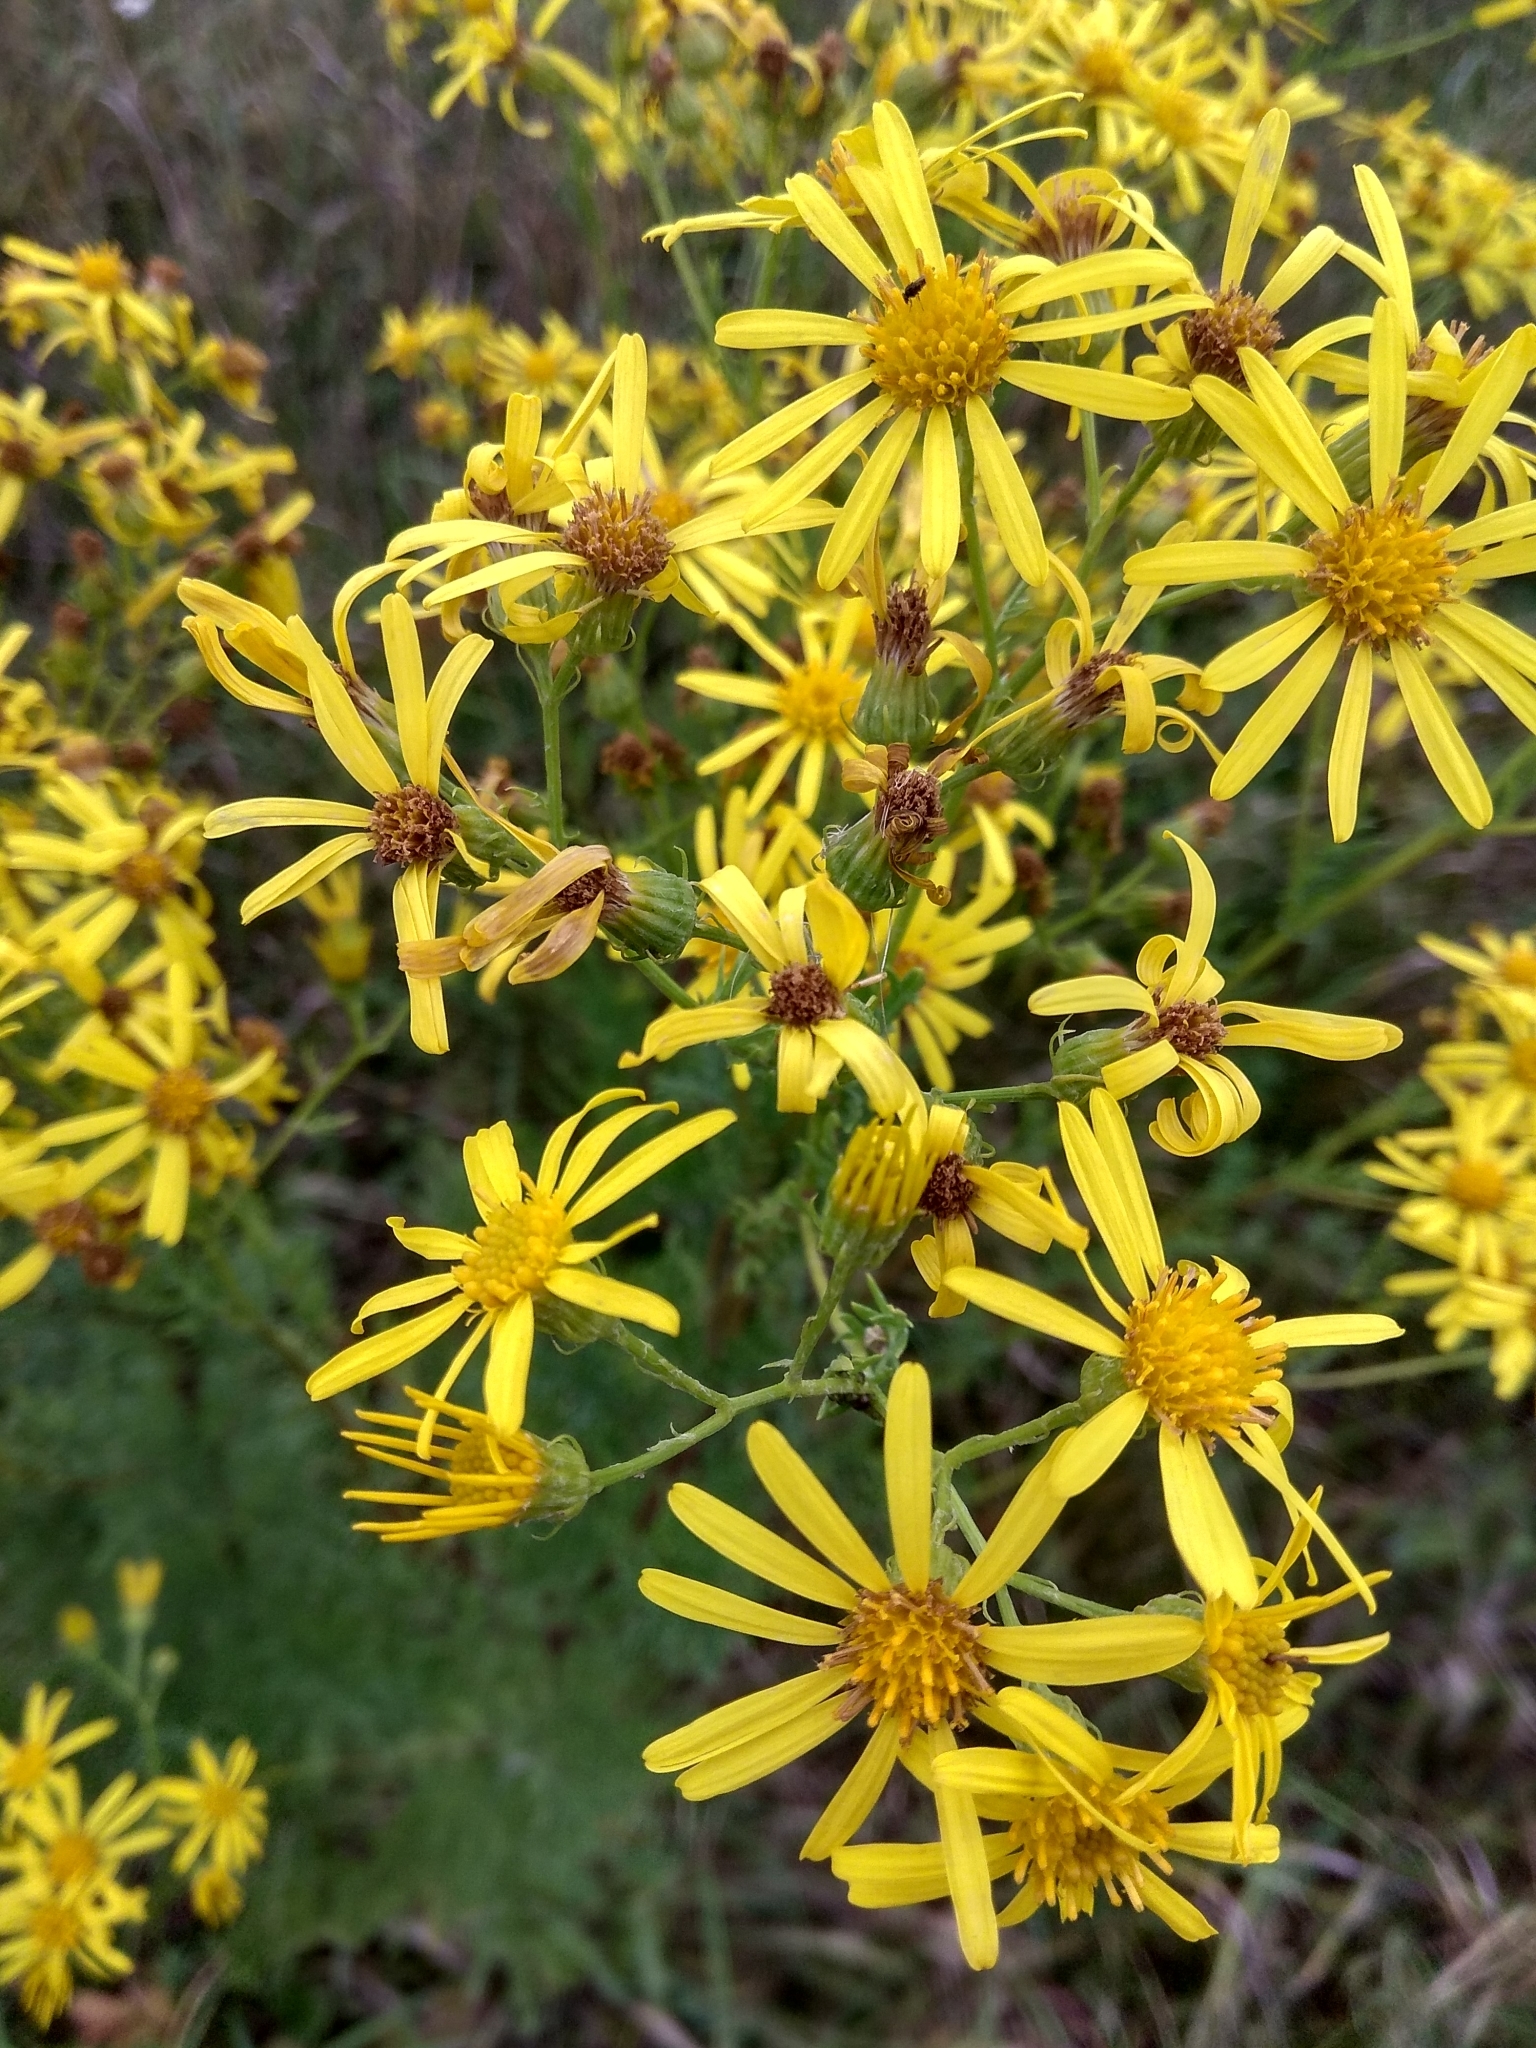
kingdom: Plantae
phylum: Tracheophyta
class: Magnoliopsida
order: Asterales
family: Asteraceae
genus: Jacobaea
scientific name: Jacobaea erucifolia
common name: Hoary ragwort
